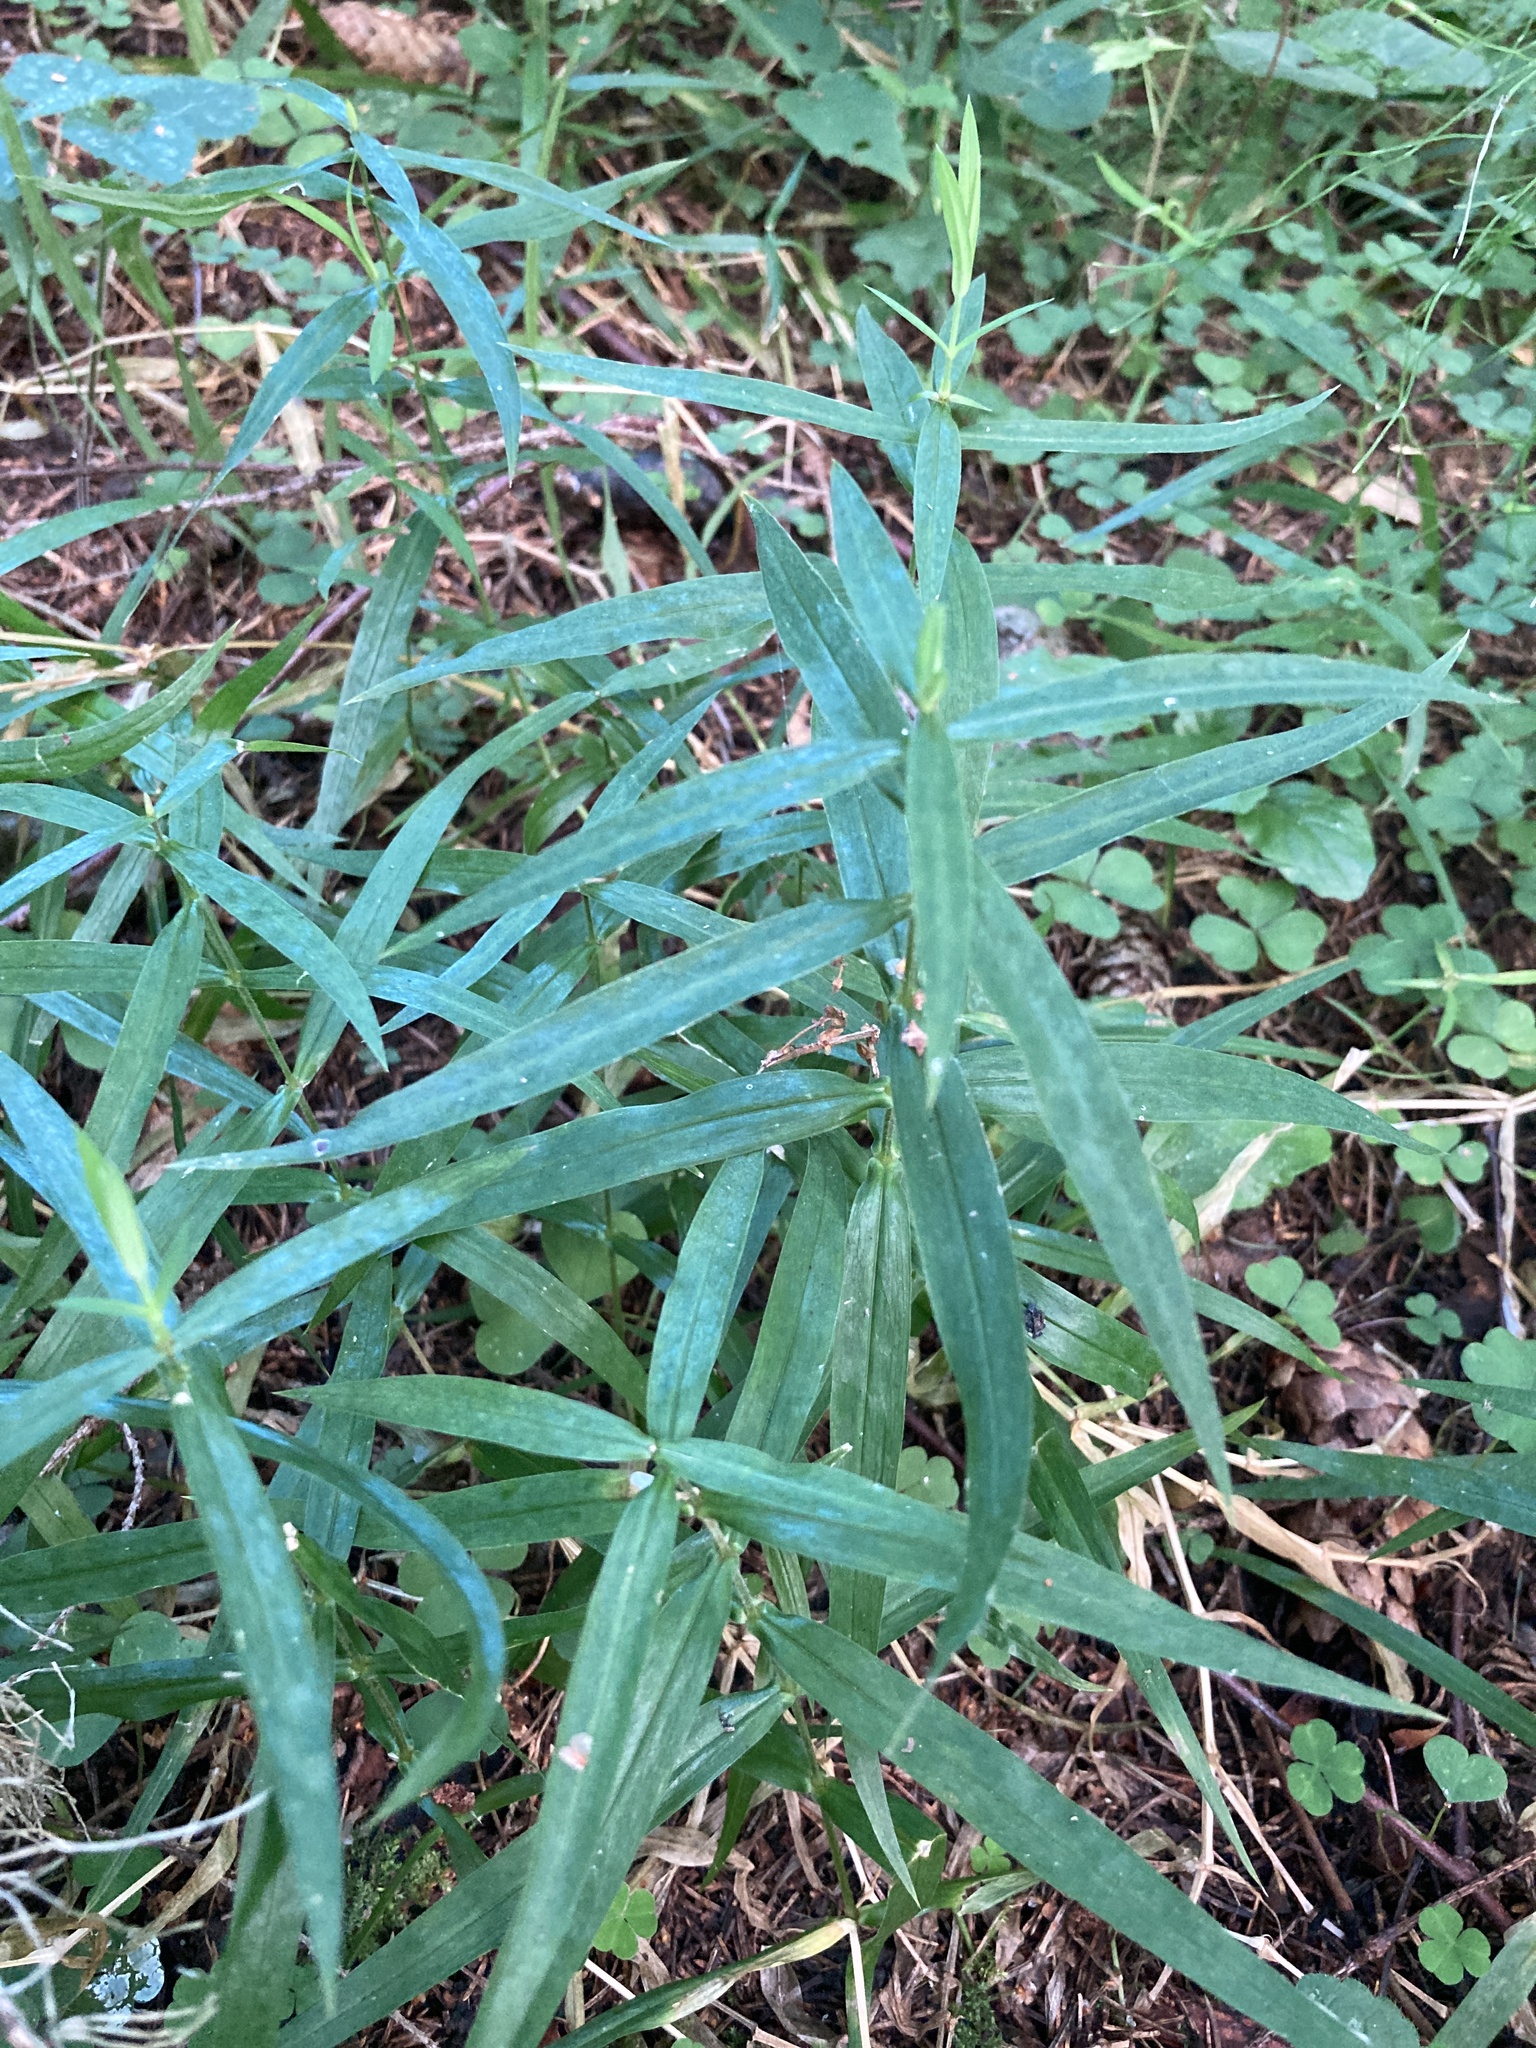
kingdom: Plantae
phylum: Tracheophyta
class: Magnoliopsida
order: Caryophyllales
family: Caryophyllaceae
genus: Rabelera
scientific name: Rabelera holostea
